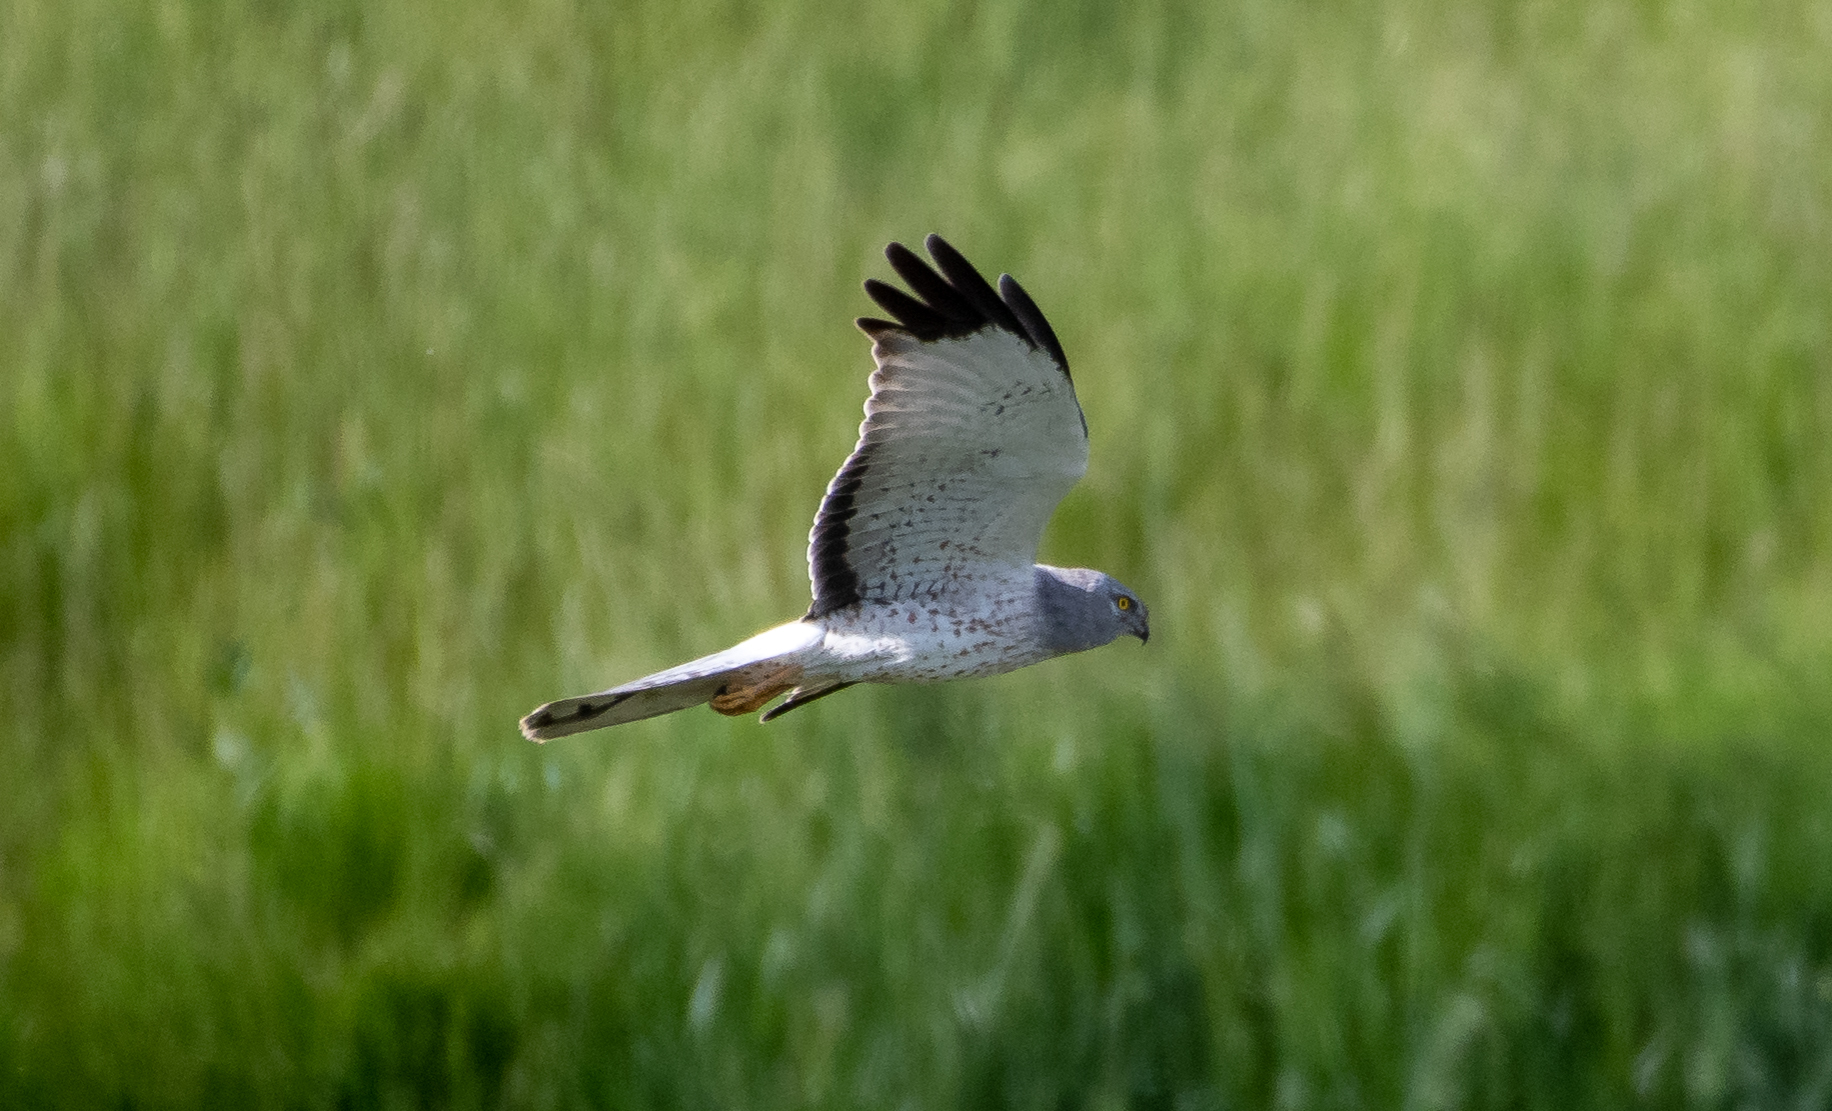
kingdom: Animalia
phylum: Chordata
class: Aves
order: Accipitriformes
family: Accipitridae
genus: Circus
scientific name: Circus cyaneus
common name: Hen harrier
